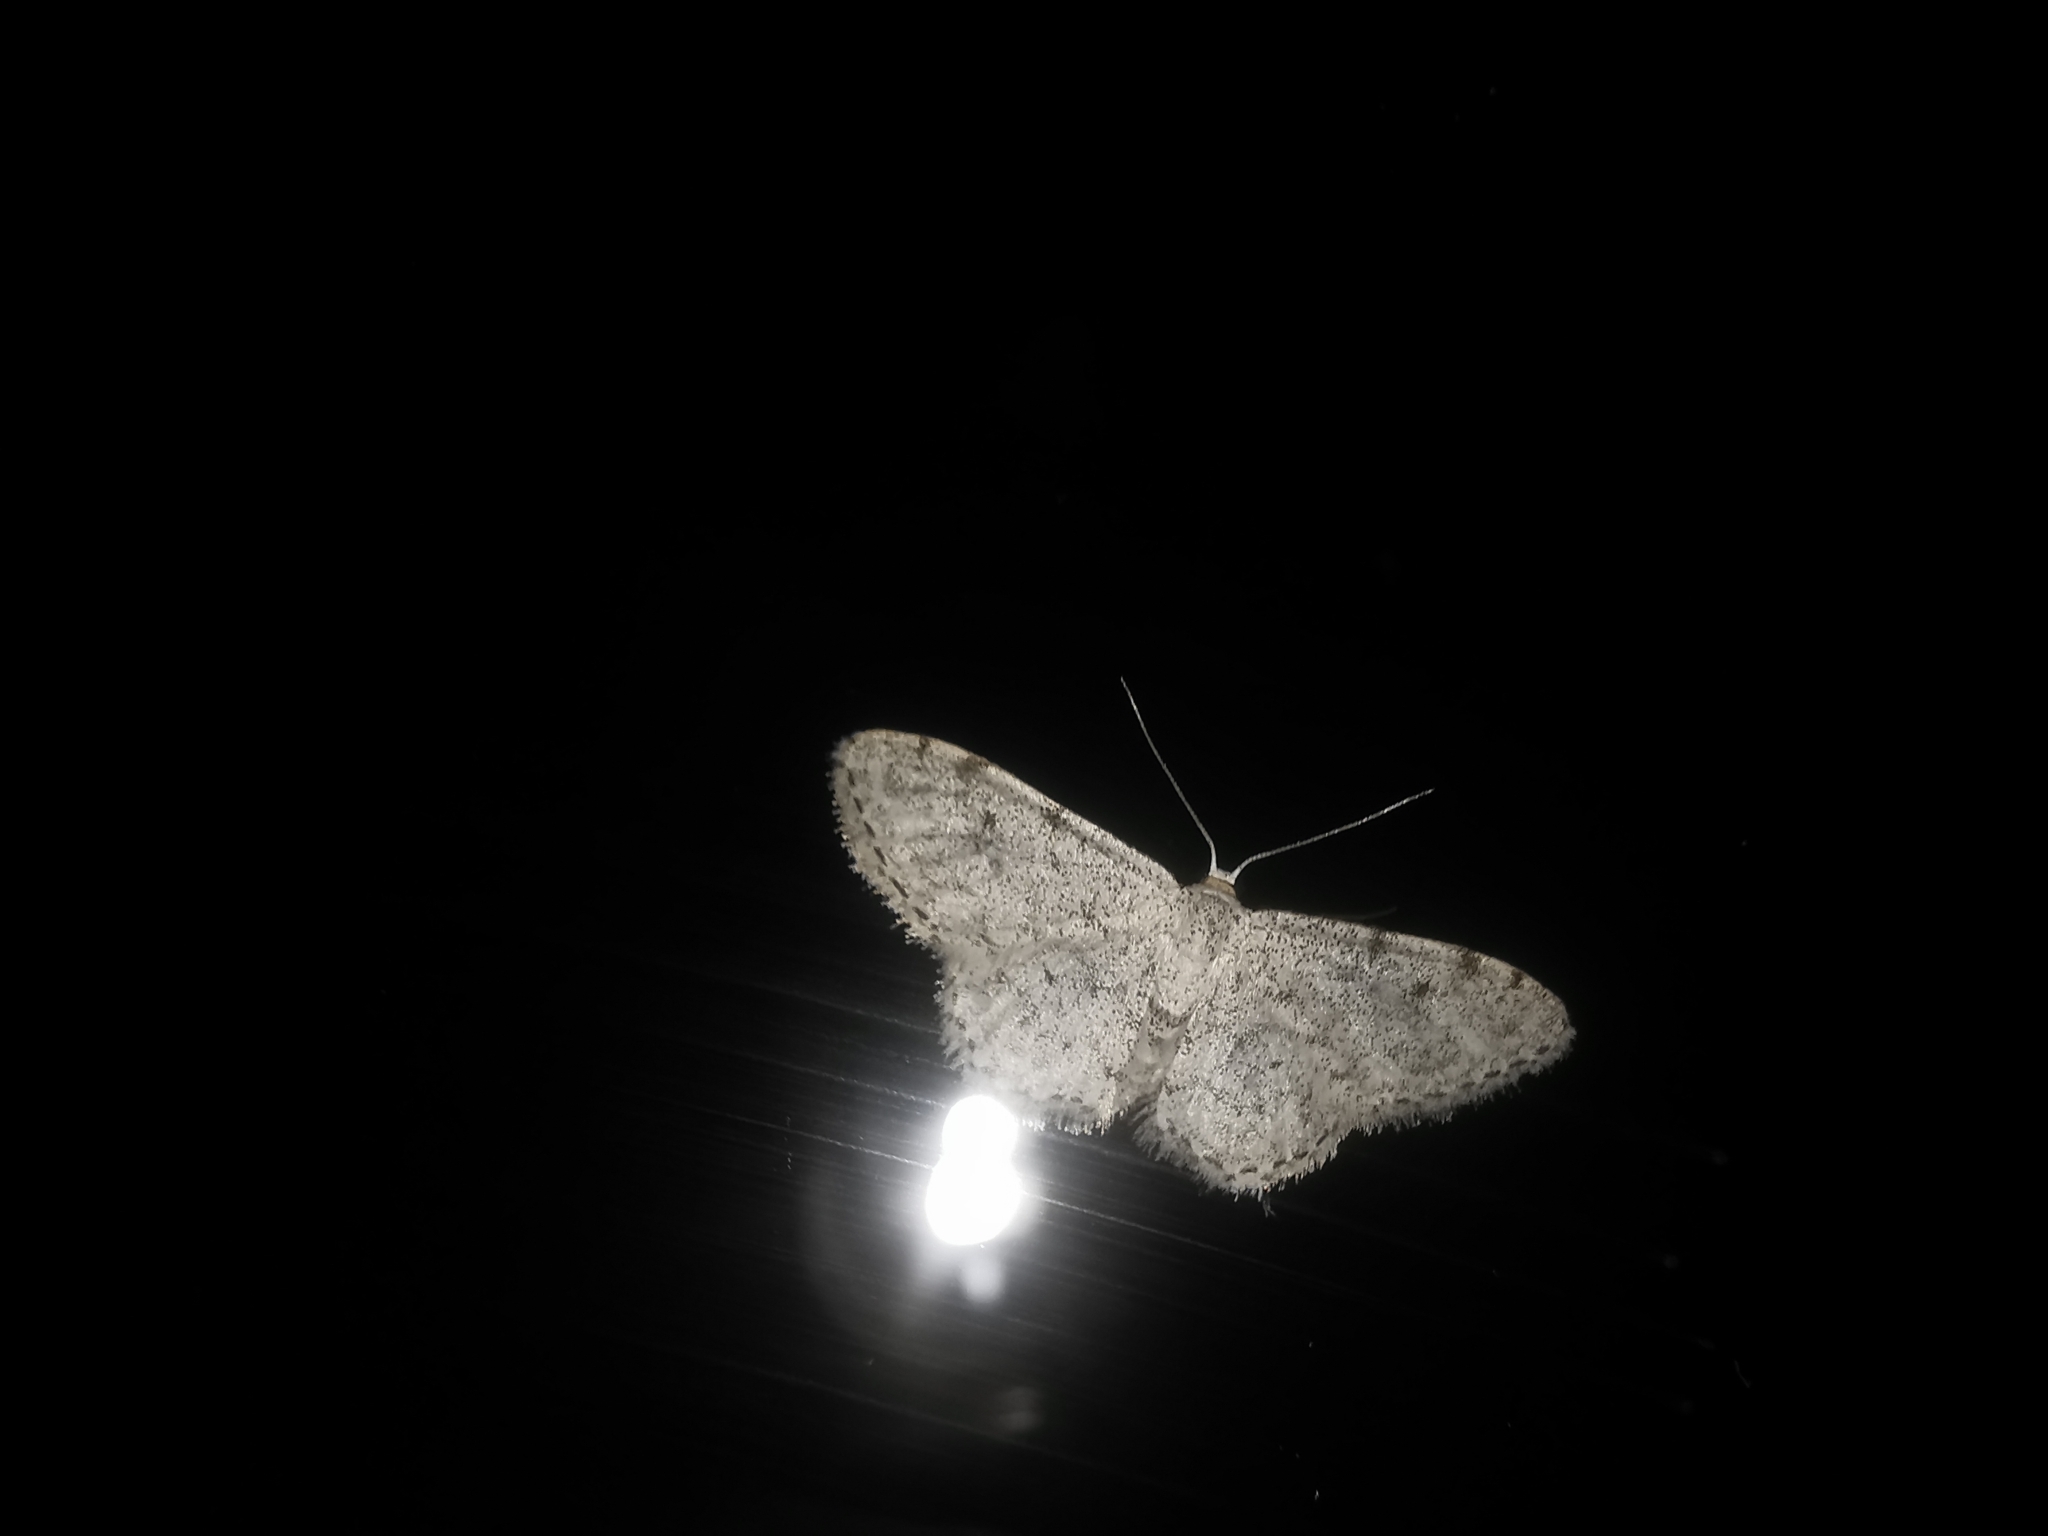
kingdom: Animalia
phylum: Arthropoda
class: Insecta
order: Lepidoptera
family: Geometridae
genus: Idaea
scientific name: Idaea camparia
